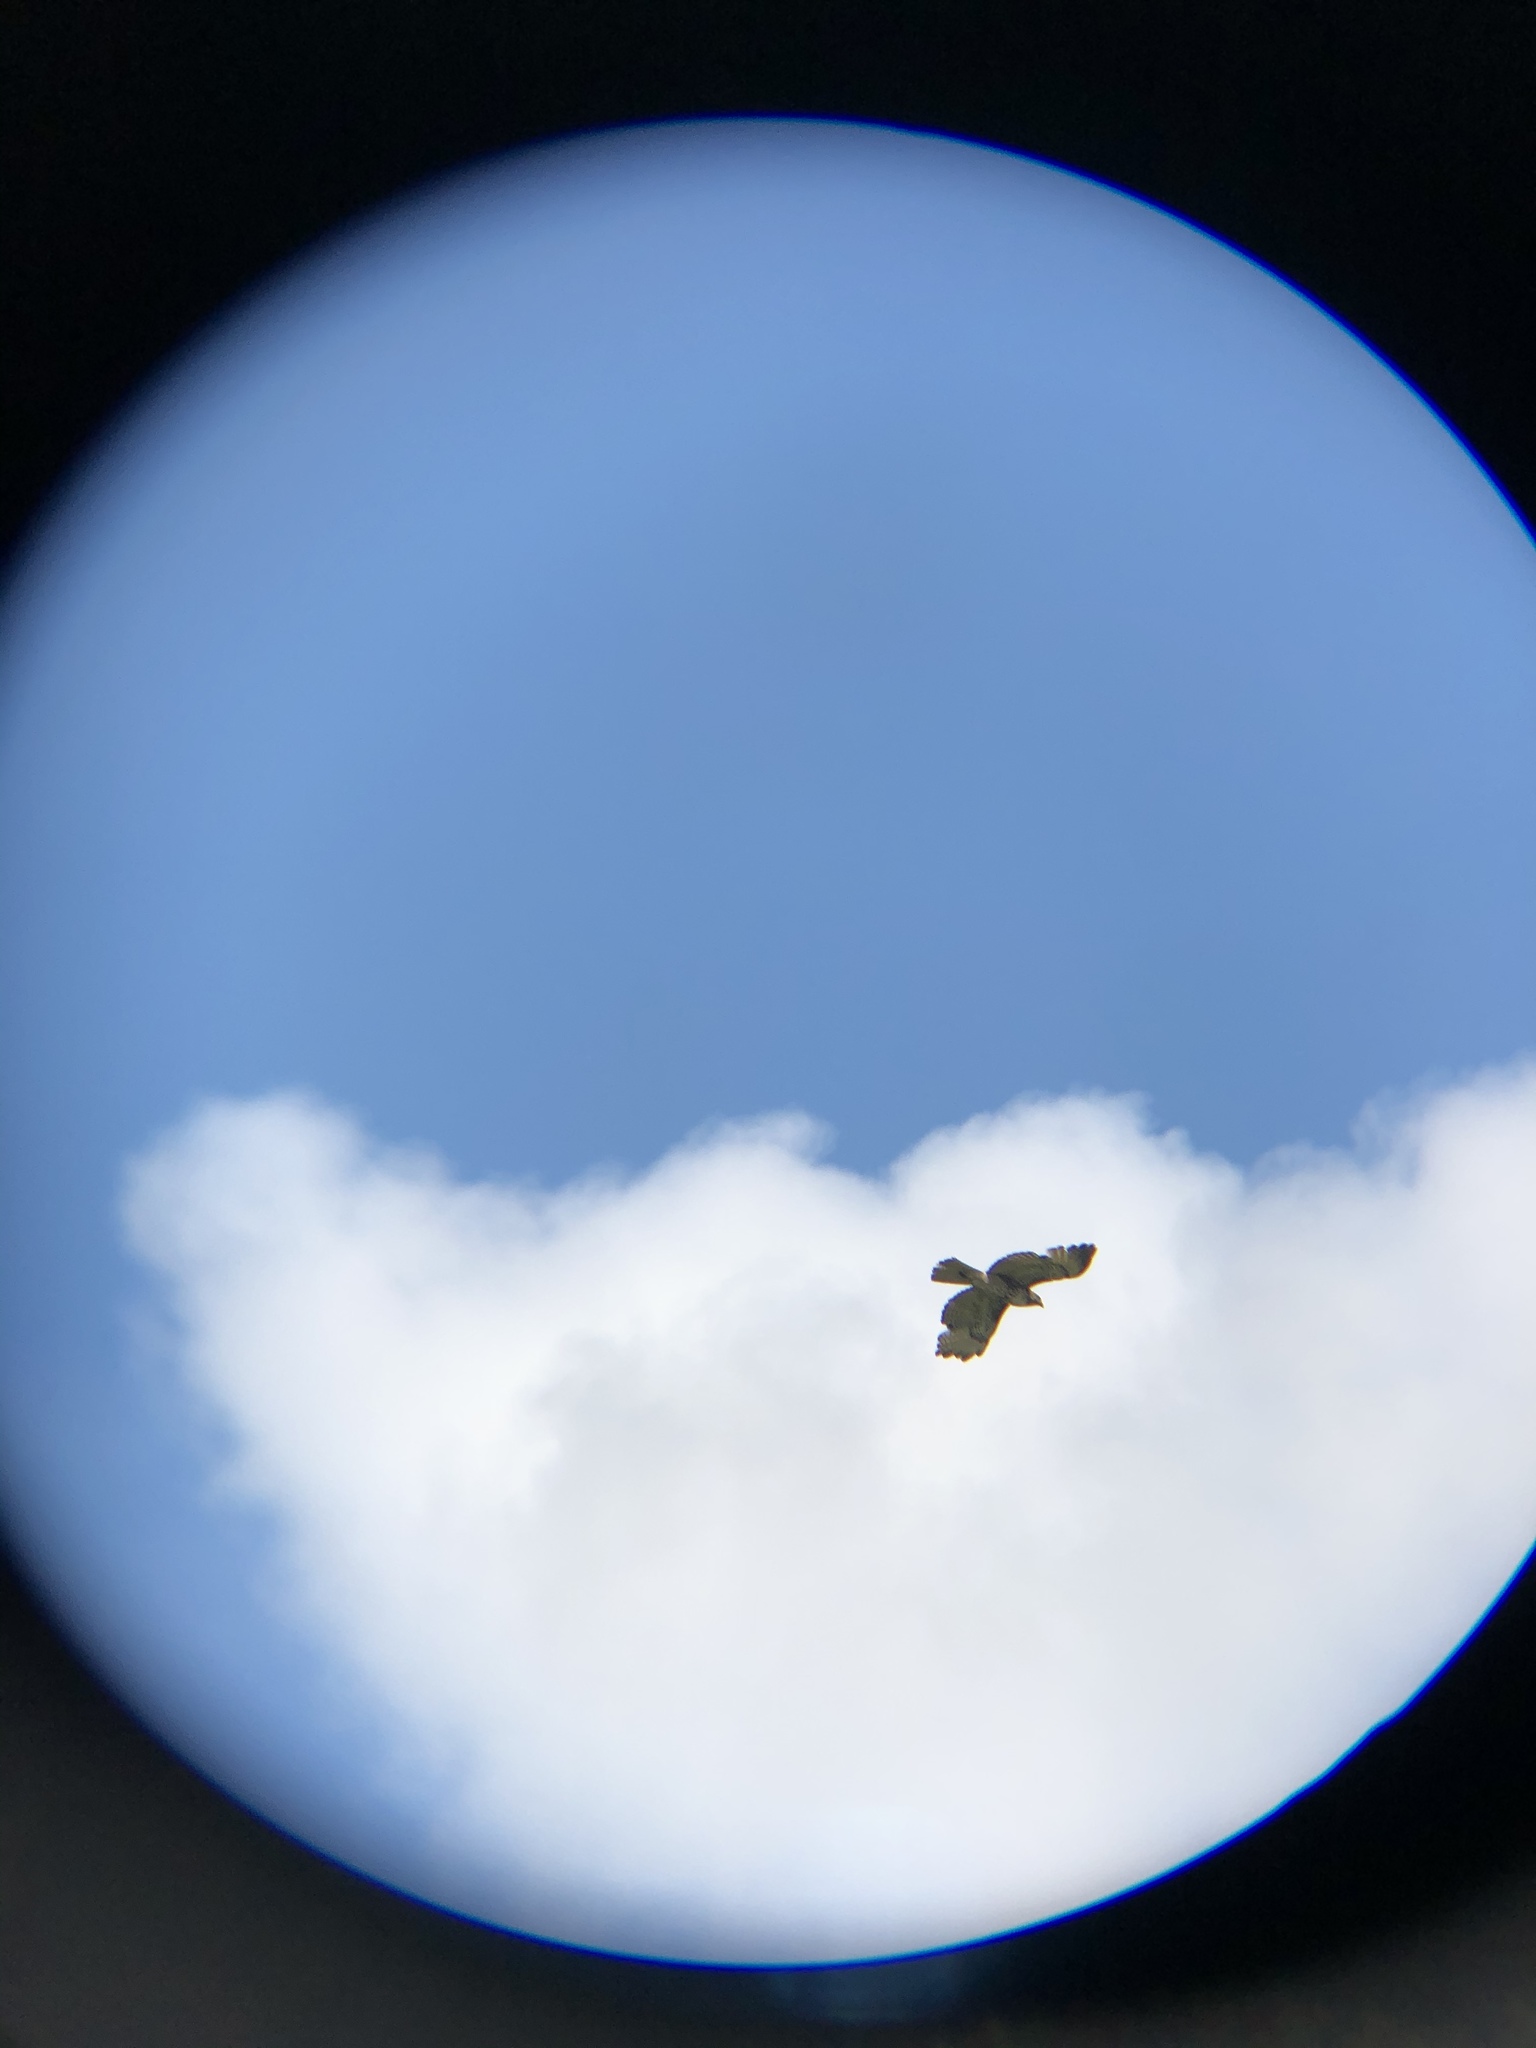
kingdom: Animalia
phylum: Chordata
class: Aves
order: Accipitriformes
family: Accipitridae
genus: Buteo
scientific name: Buteo jamaicensis
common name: Red-tailed hawk
